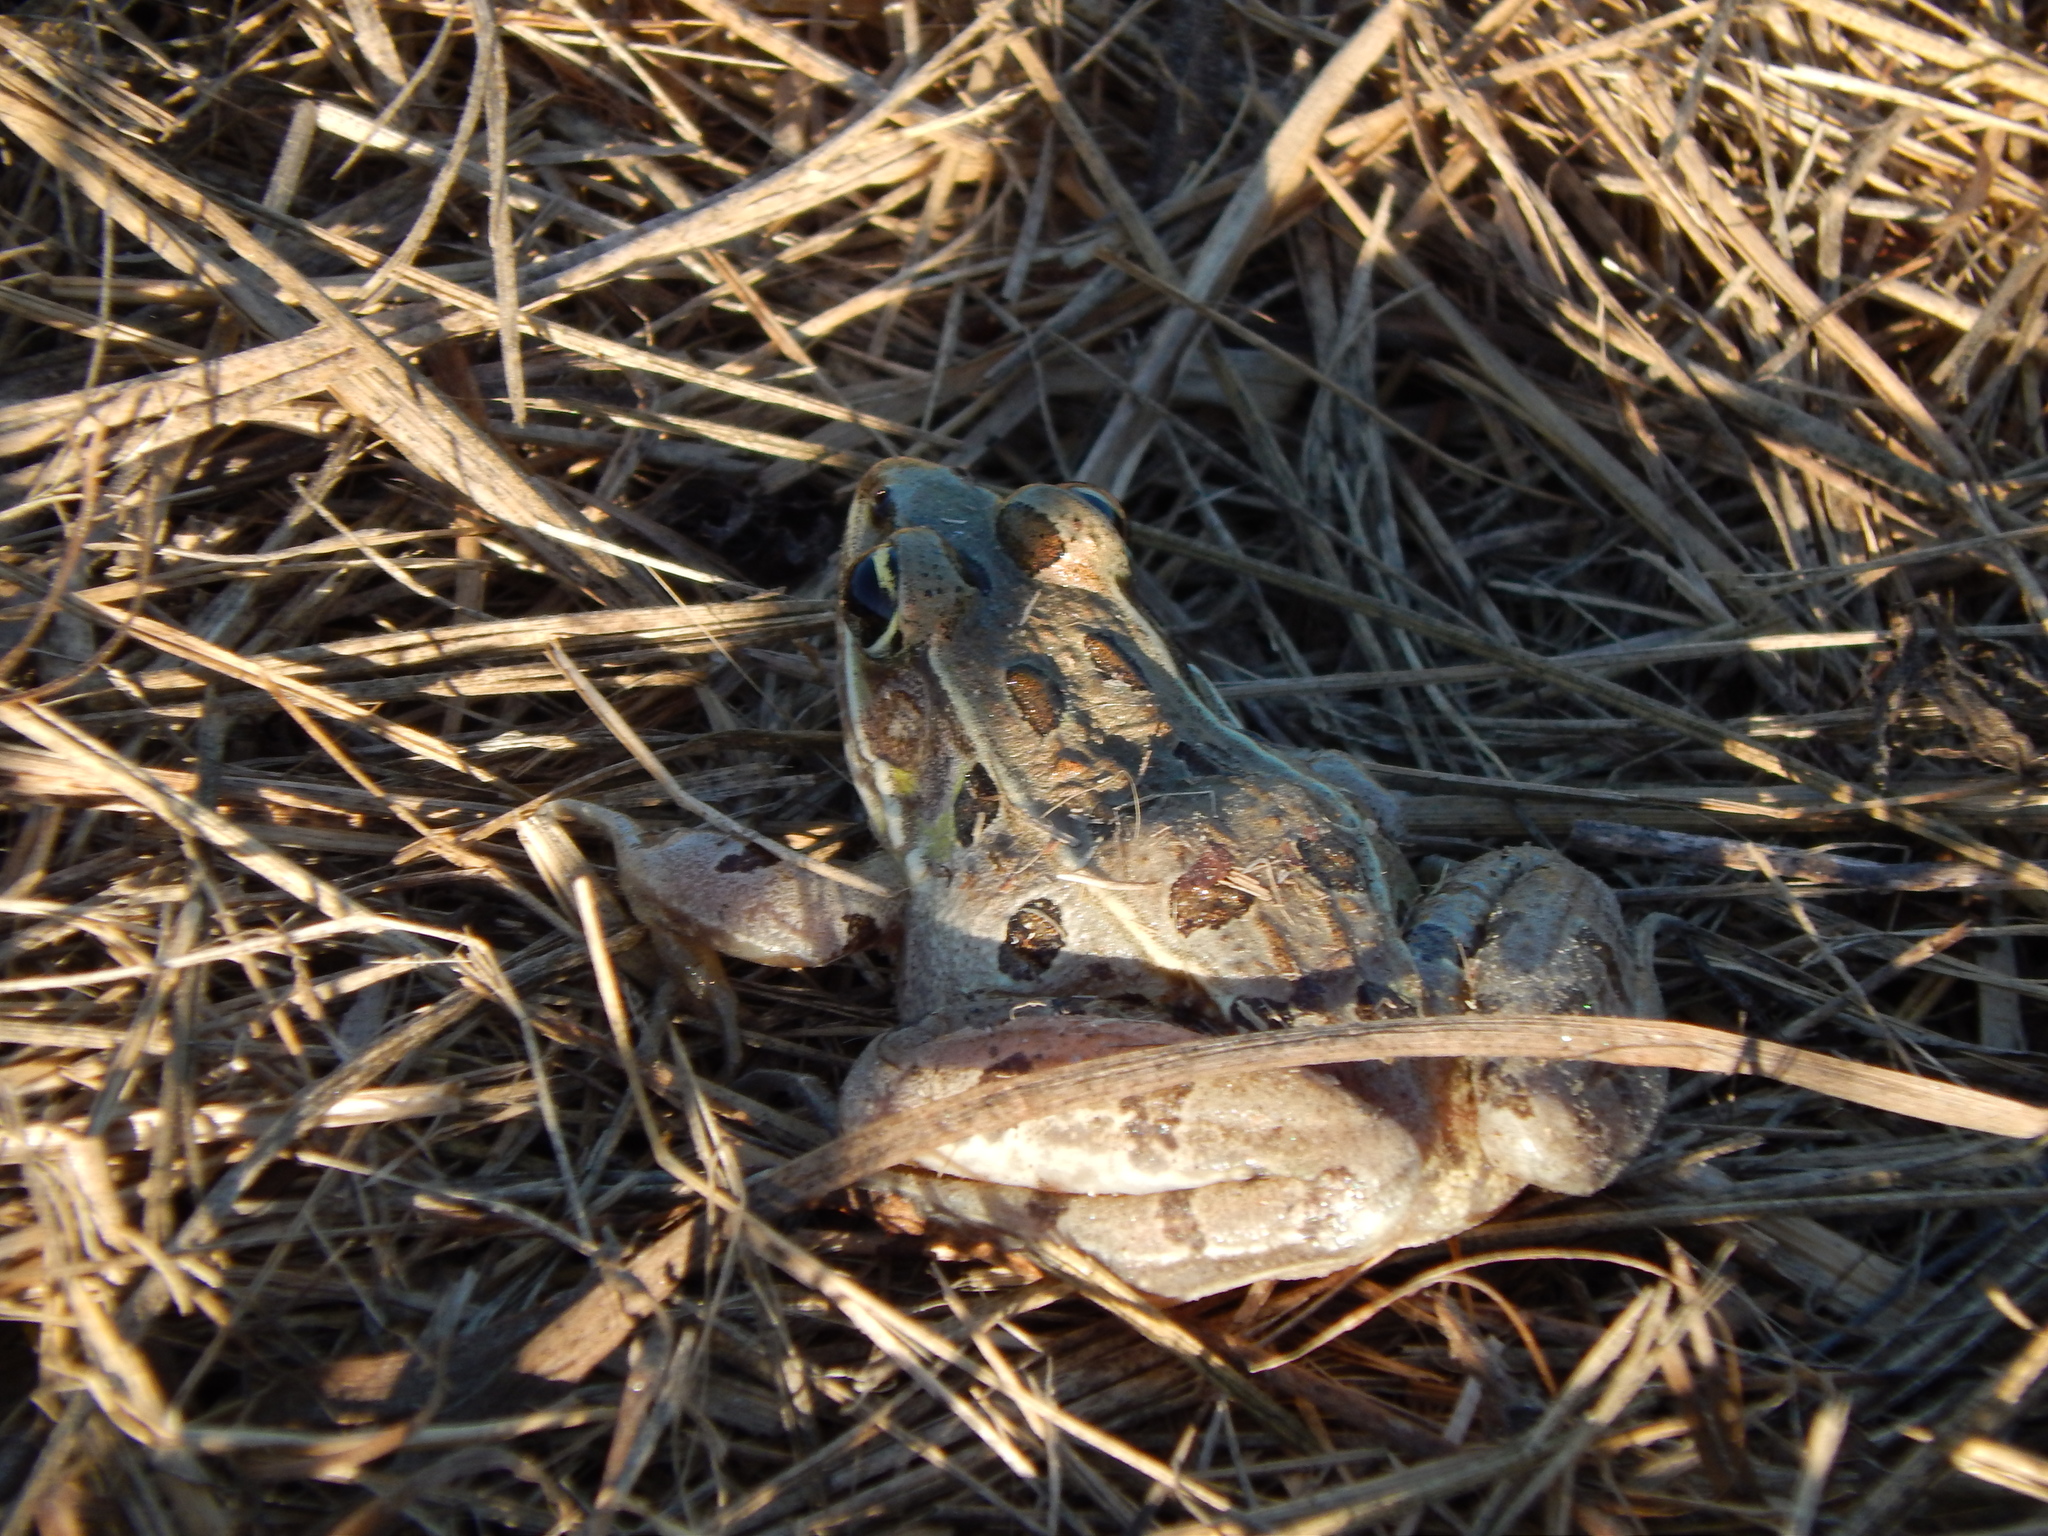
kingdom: Animalia
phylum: Chordata
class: Amphibia
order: Anura
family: Ranidae
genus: Lithobates
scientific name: Lithobates kauffeldi
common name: Mid-atlantic coast leopard frog
